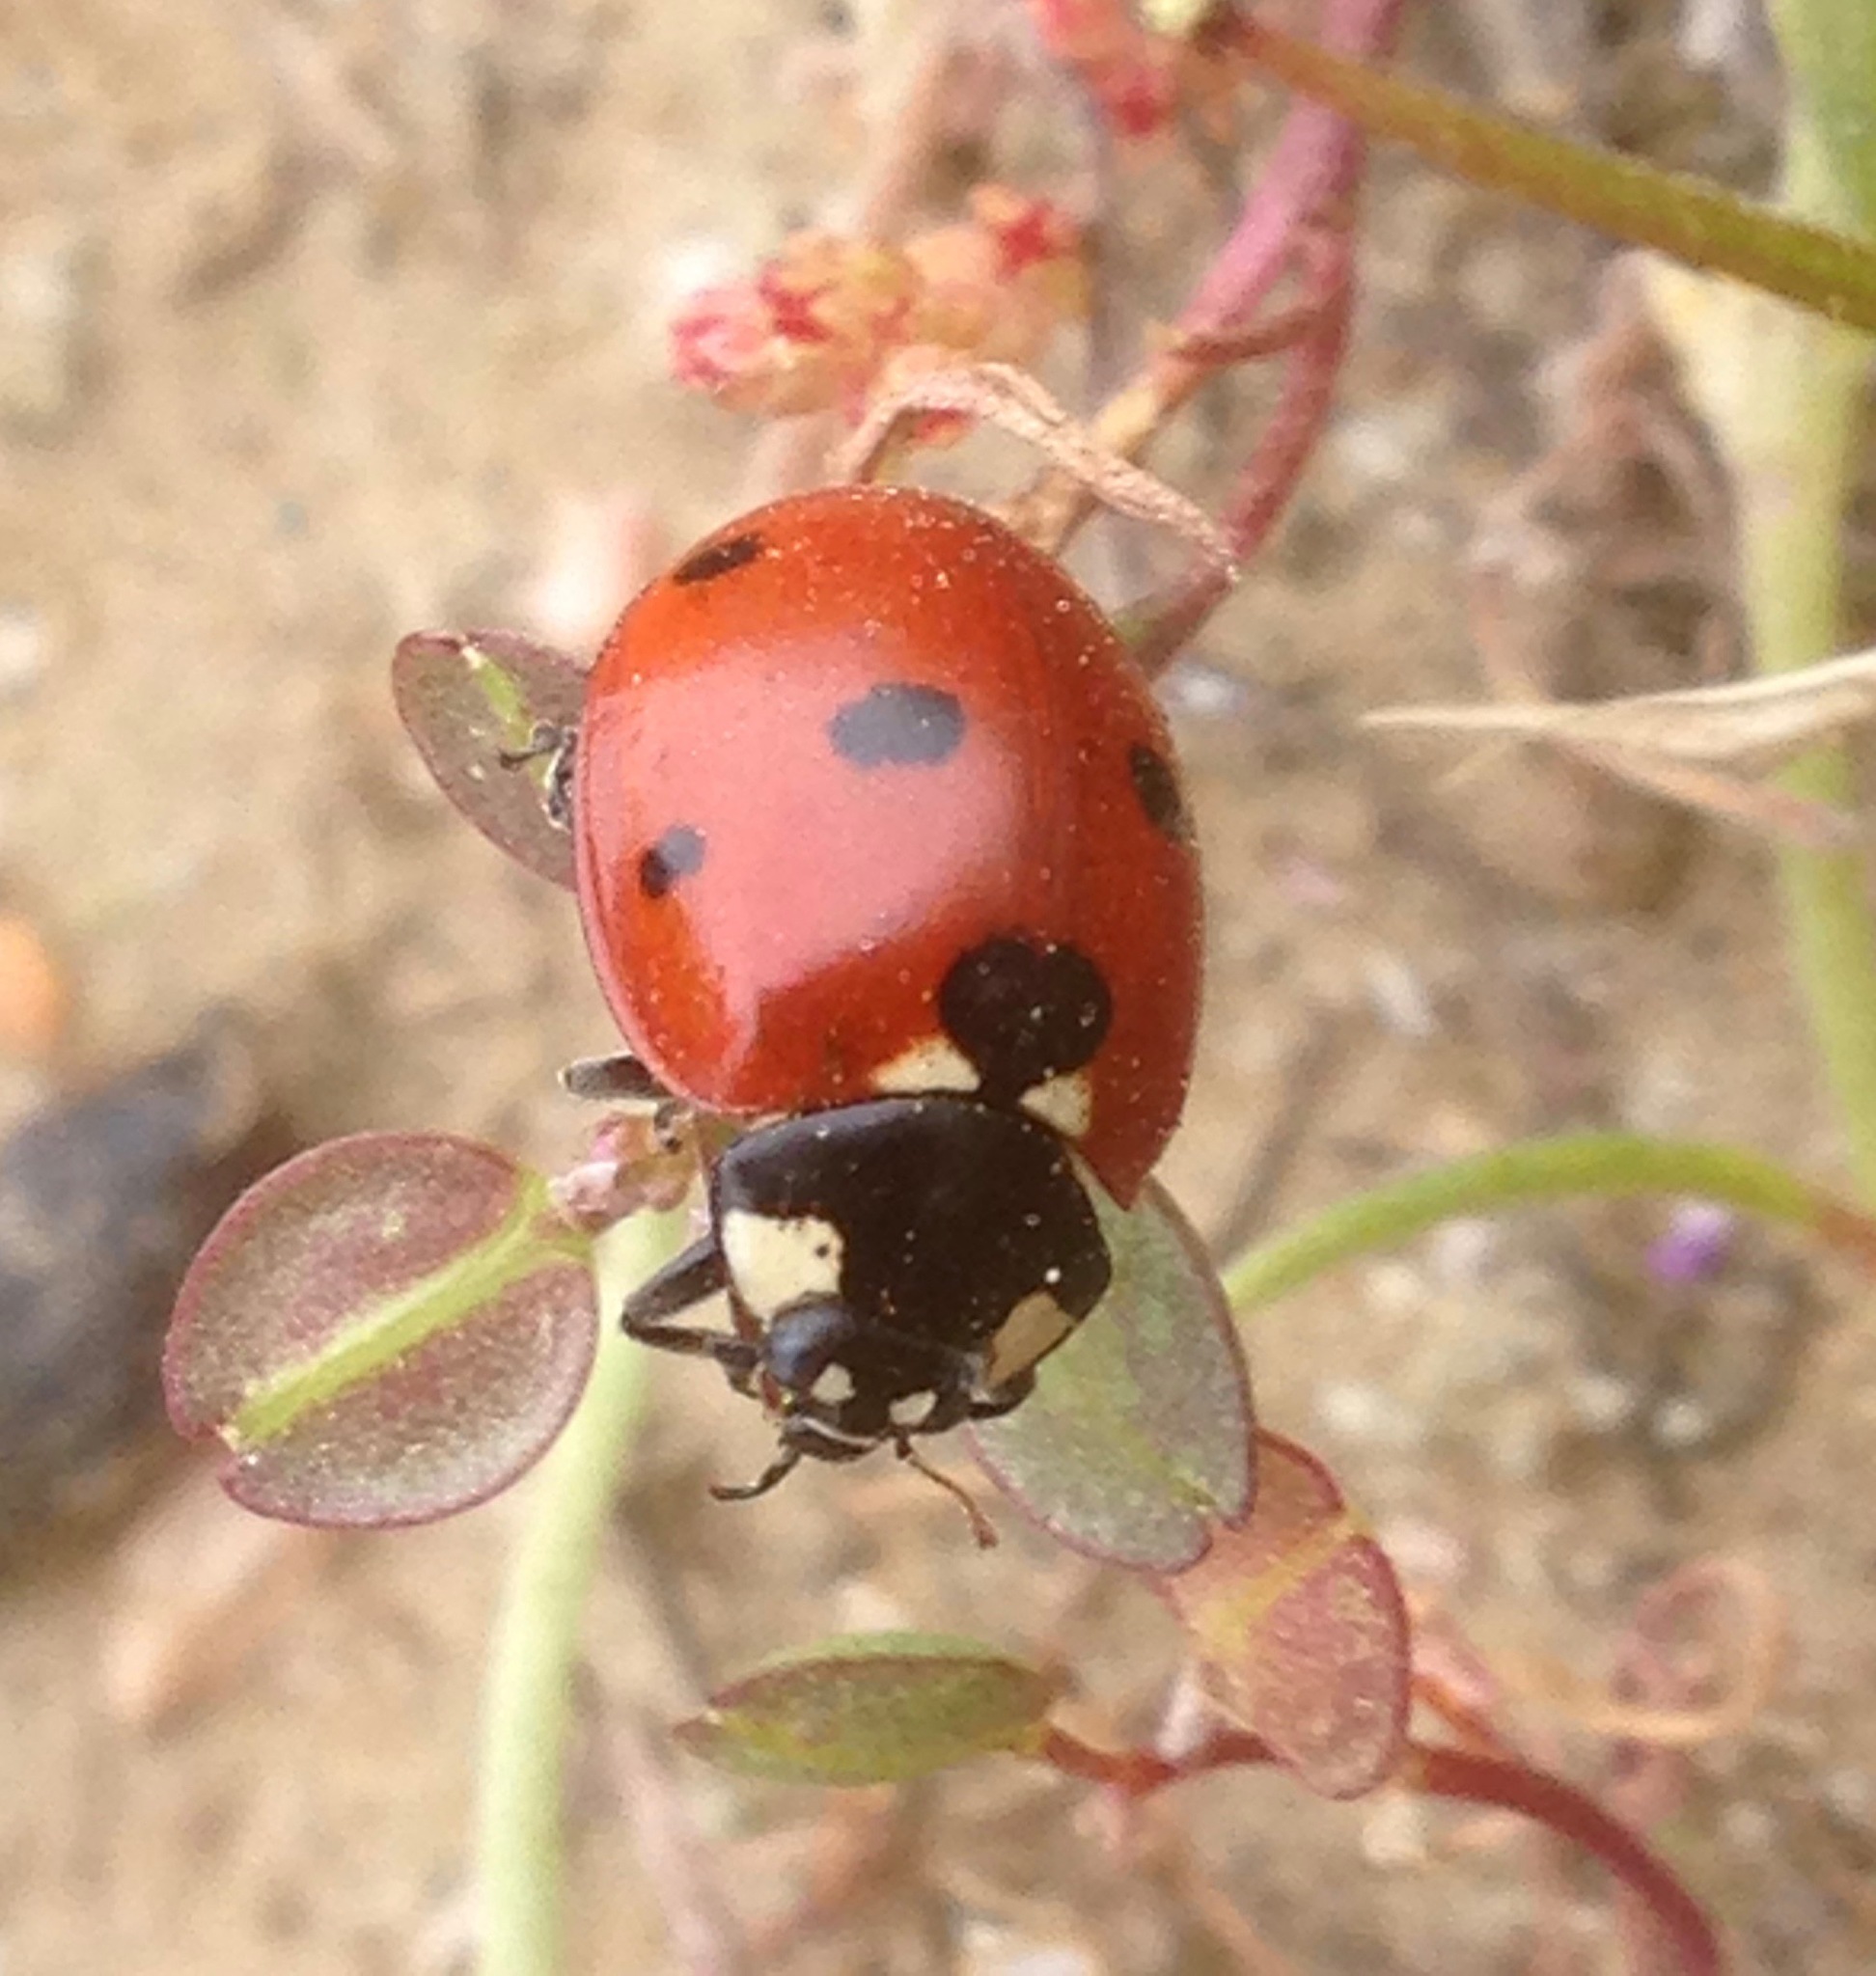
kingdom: Animalia
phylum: Arthropoda
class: Insecta
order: Coleoptera
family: Coccinellidae
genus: Coccinella
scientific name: Coccinella septempunctata
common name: Sevenspotted lady beetle
